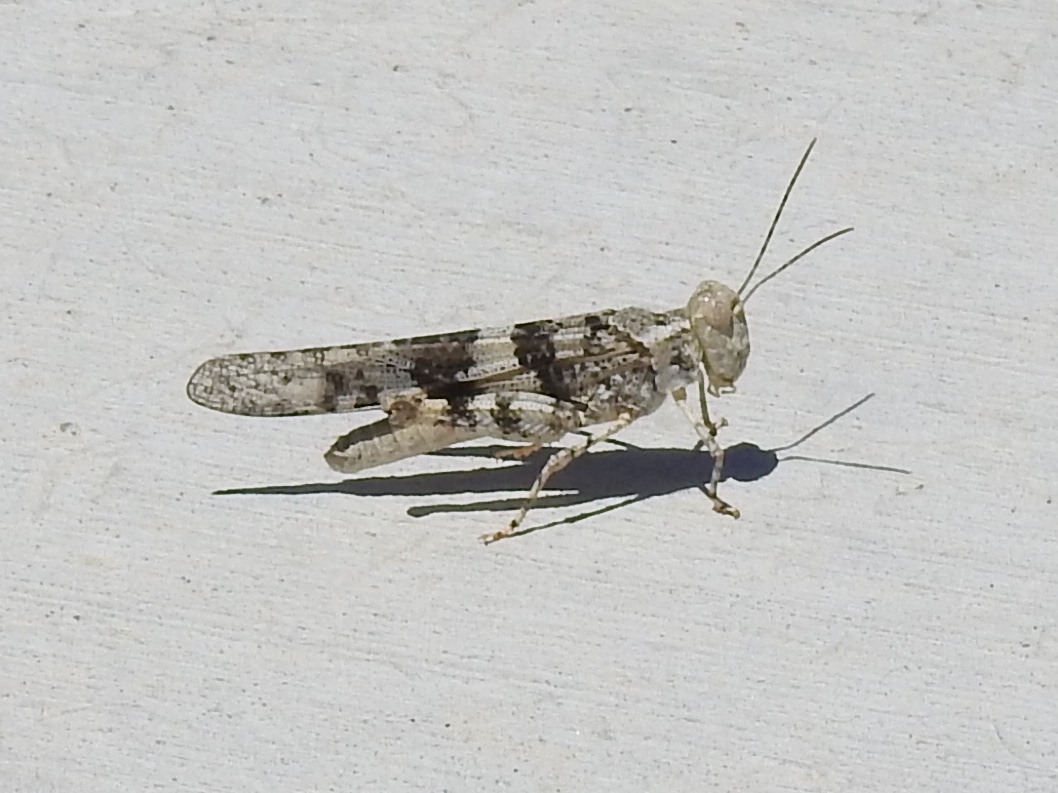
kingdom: Animalia
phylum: Arthropoda
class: Insecta
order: Orthoptera
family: Acrididae
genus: Trimerotropis
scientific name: Trimerotropis pallidipennis
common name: Pallid-winged grasshopper
